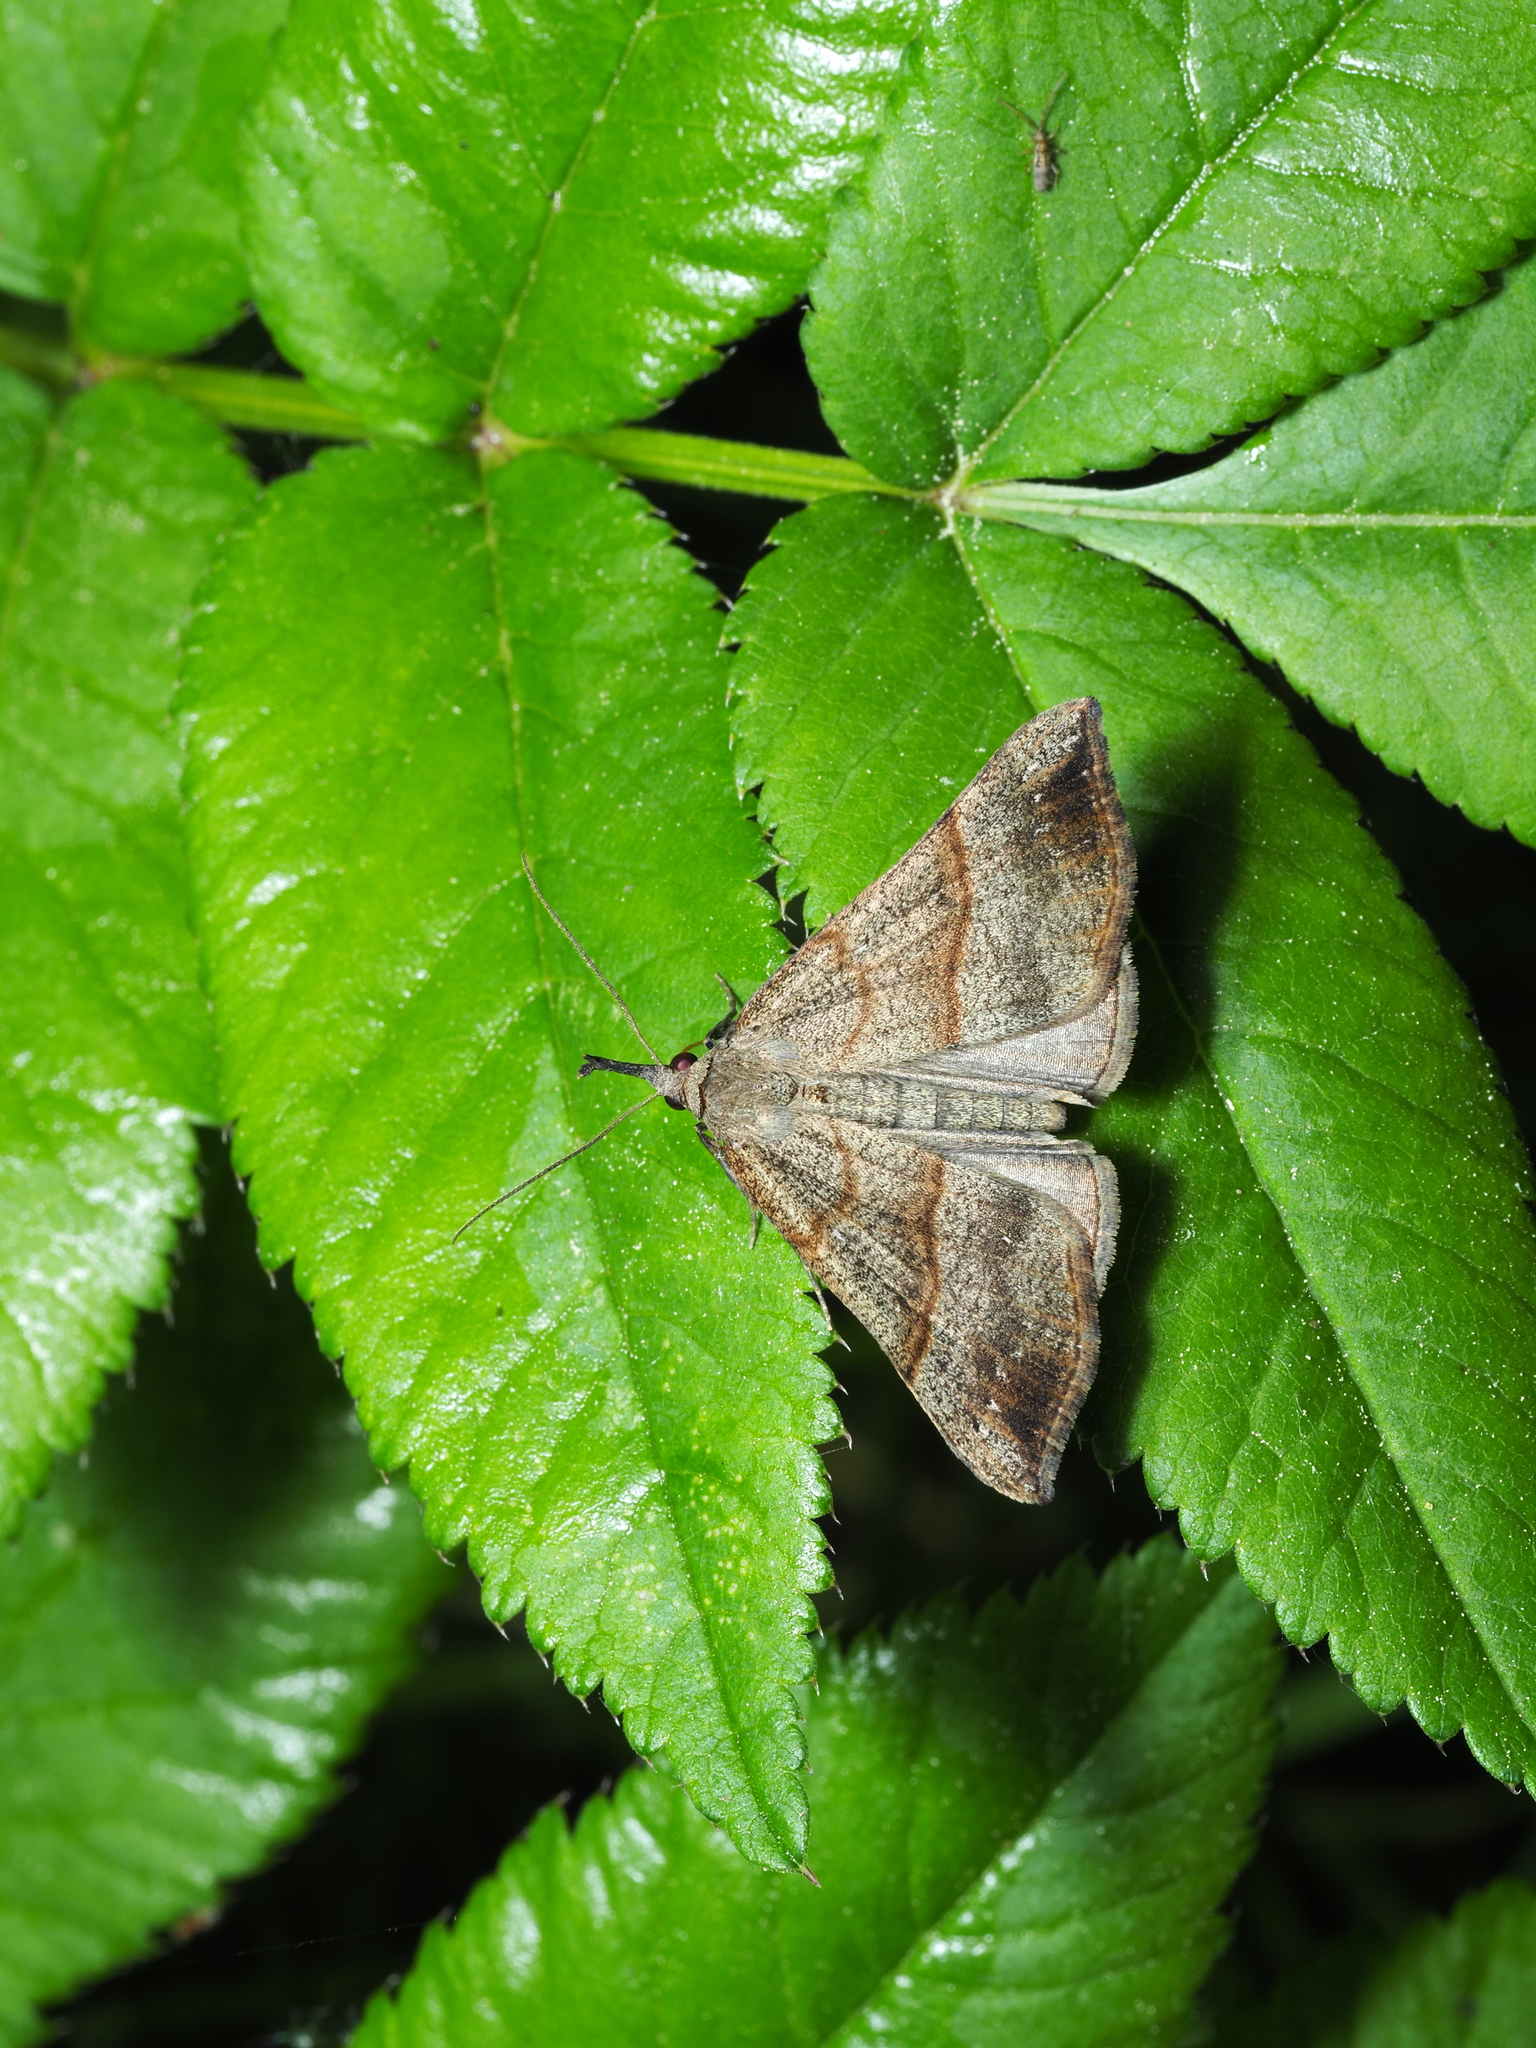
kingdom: Animalia
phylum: Arthropoda
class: Insecta
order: Lepidoptera
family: Erebidae
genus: Hypena
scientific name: Hypena proboscidalis
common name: Snout
